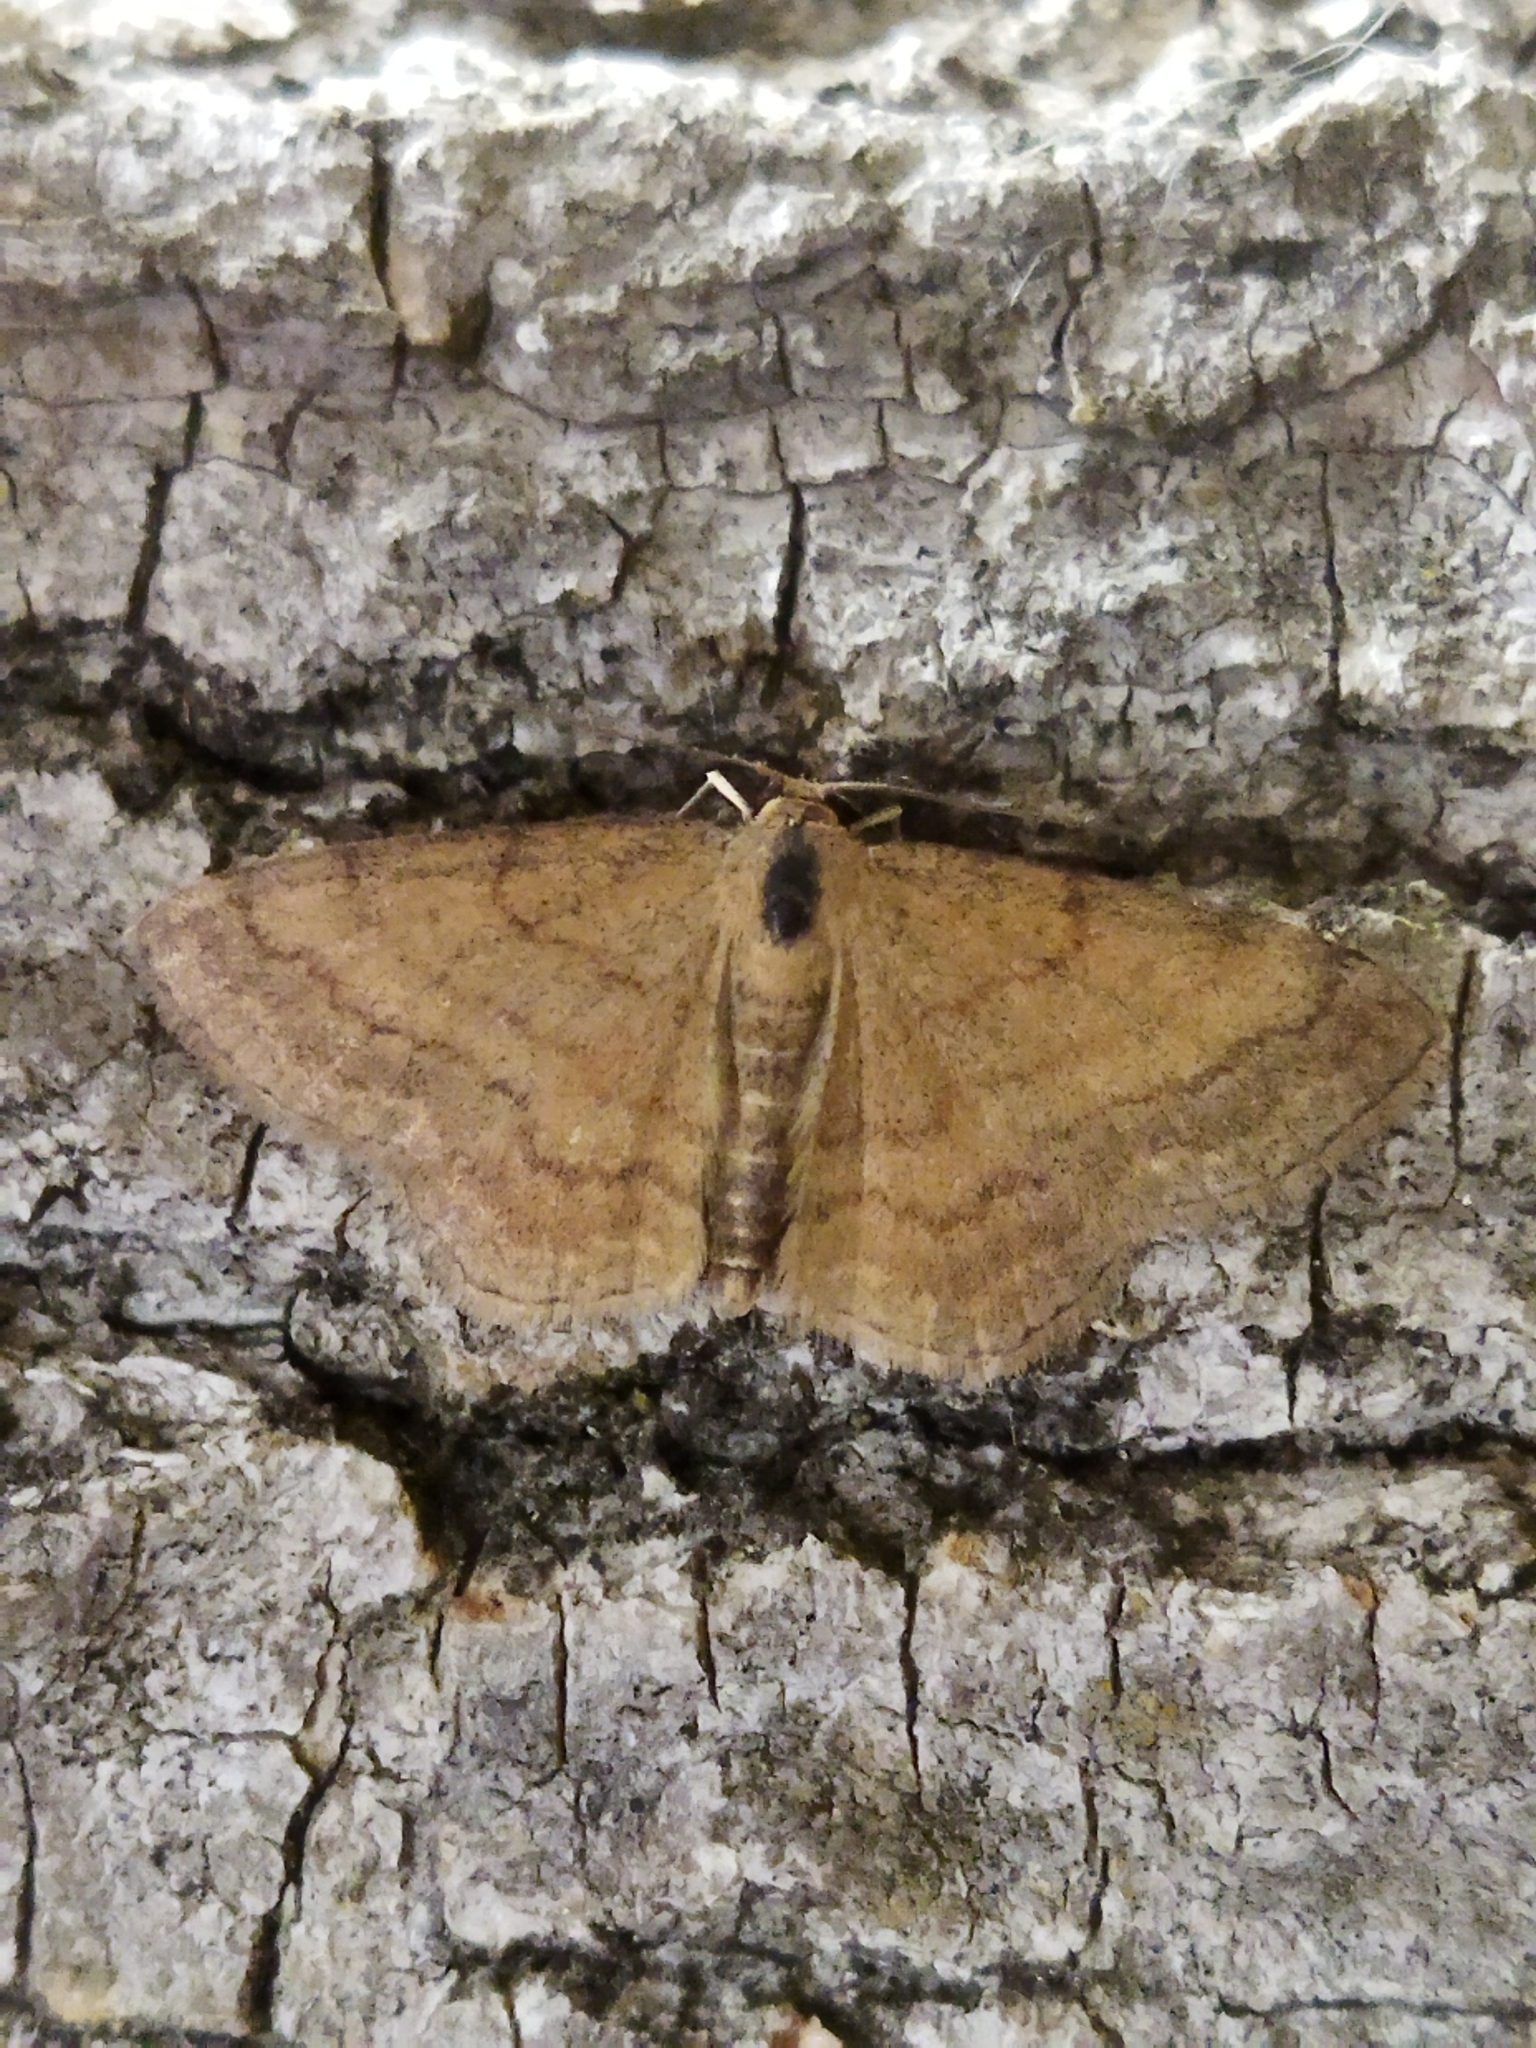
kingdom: Animalia
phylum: Arthropoda
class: Insecta
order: Lepidoptera
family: Geometridae
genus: Scopula
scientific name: Scopula rubiginata
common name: Tawny wave
